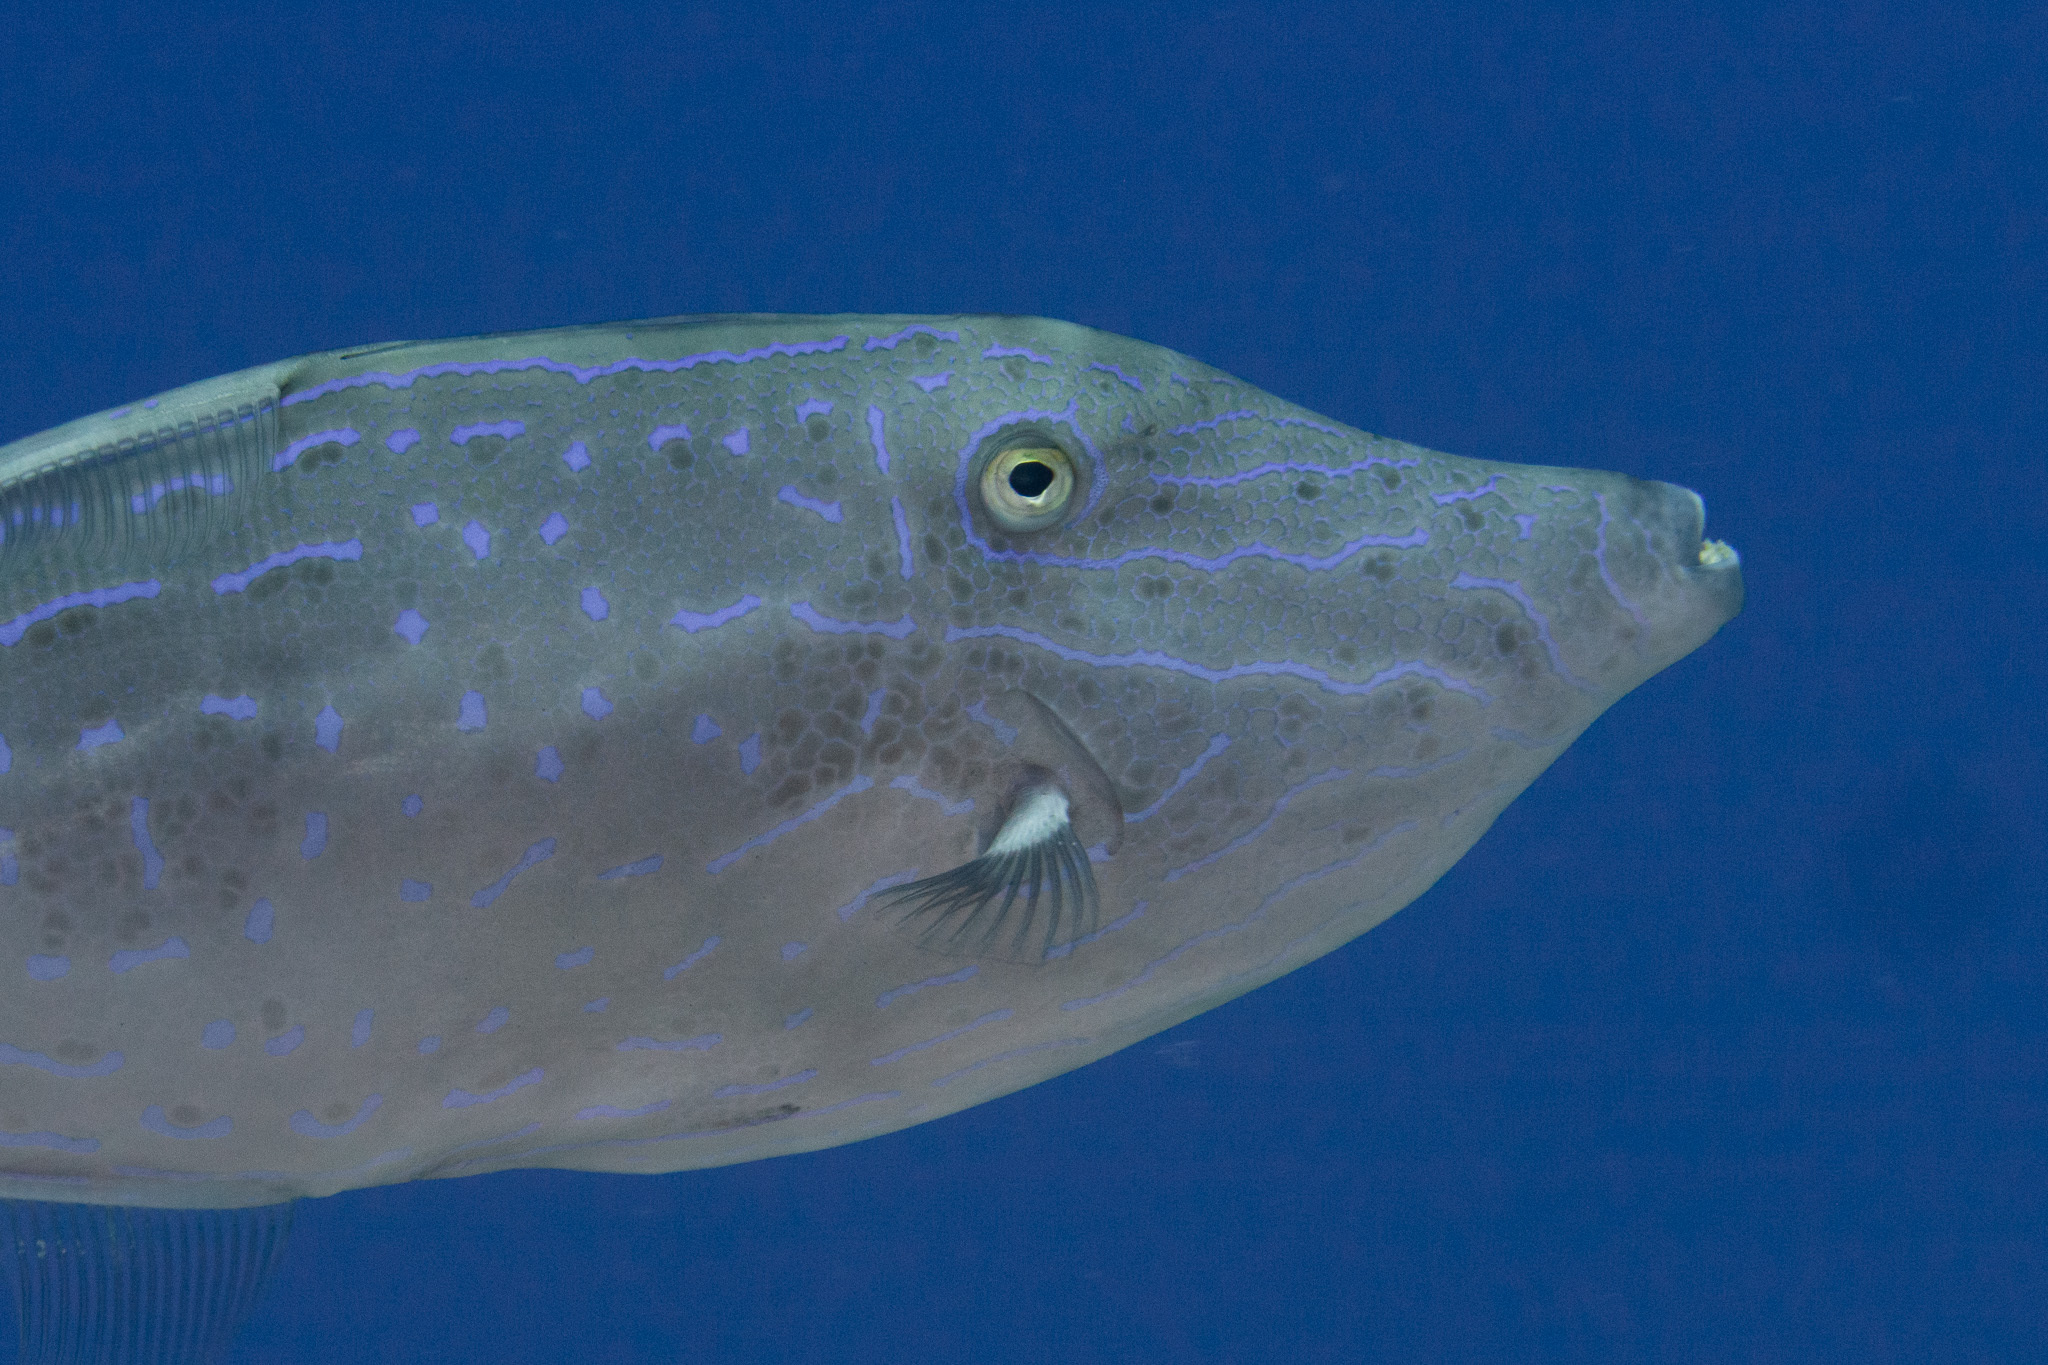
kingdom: Animalia
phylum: Chordata
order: Tetraodontiformes
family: Monacanthidae
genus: Aluterus
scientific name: Aluterus scriptus
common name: Scribbled leatherjacket filefish
